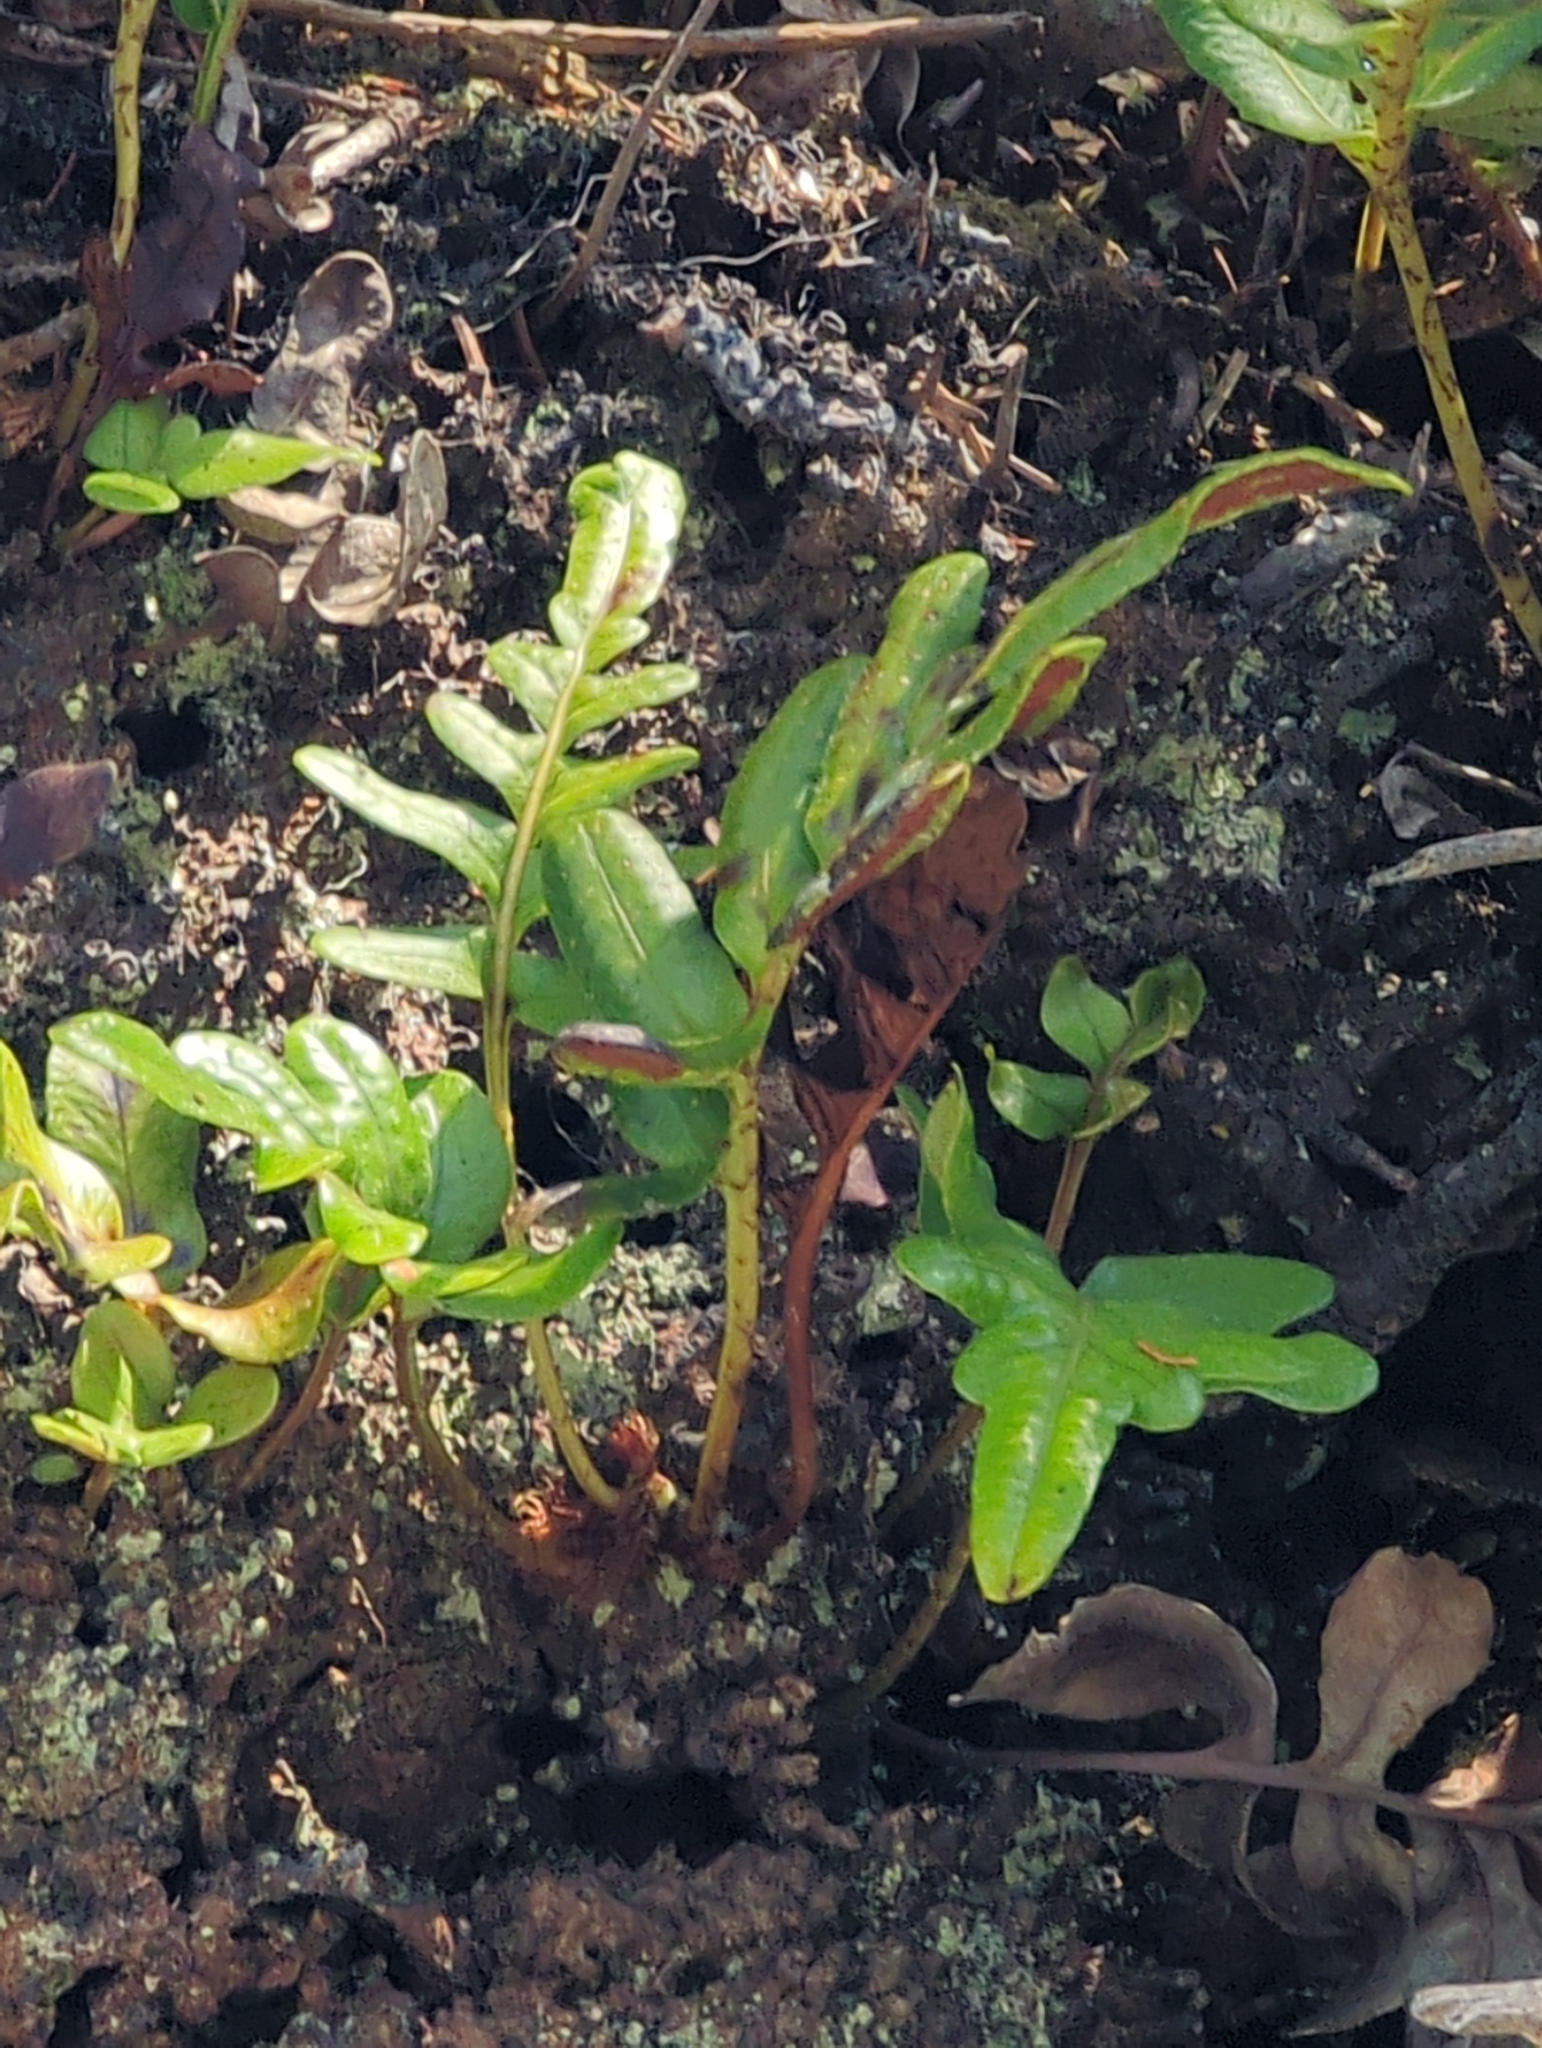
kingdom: Plantae
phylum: Tracheophyta
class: Polypodiopsida
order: Polypodiales
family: Polypodiaceae
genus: Polypodium
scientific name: Polypodium scouleri
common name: Scouler's polypody
